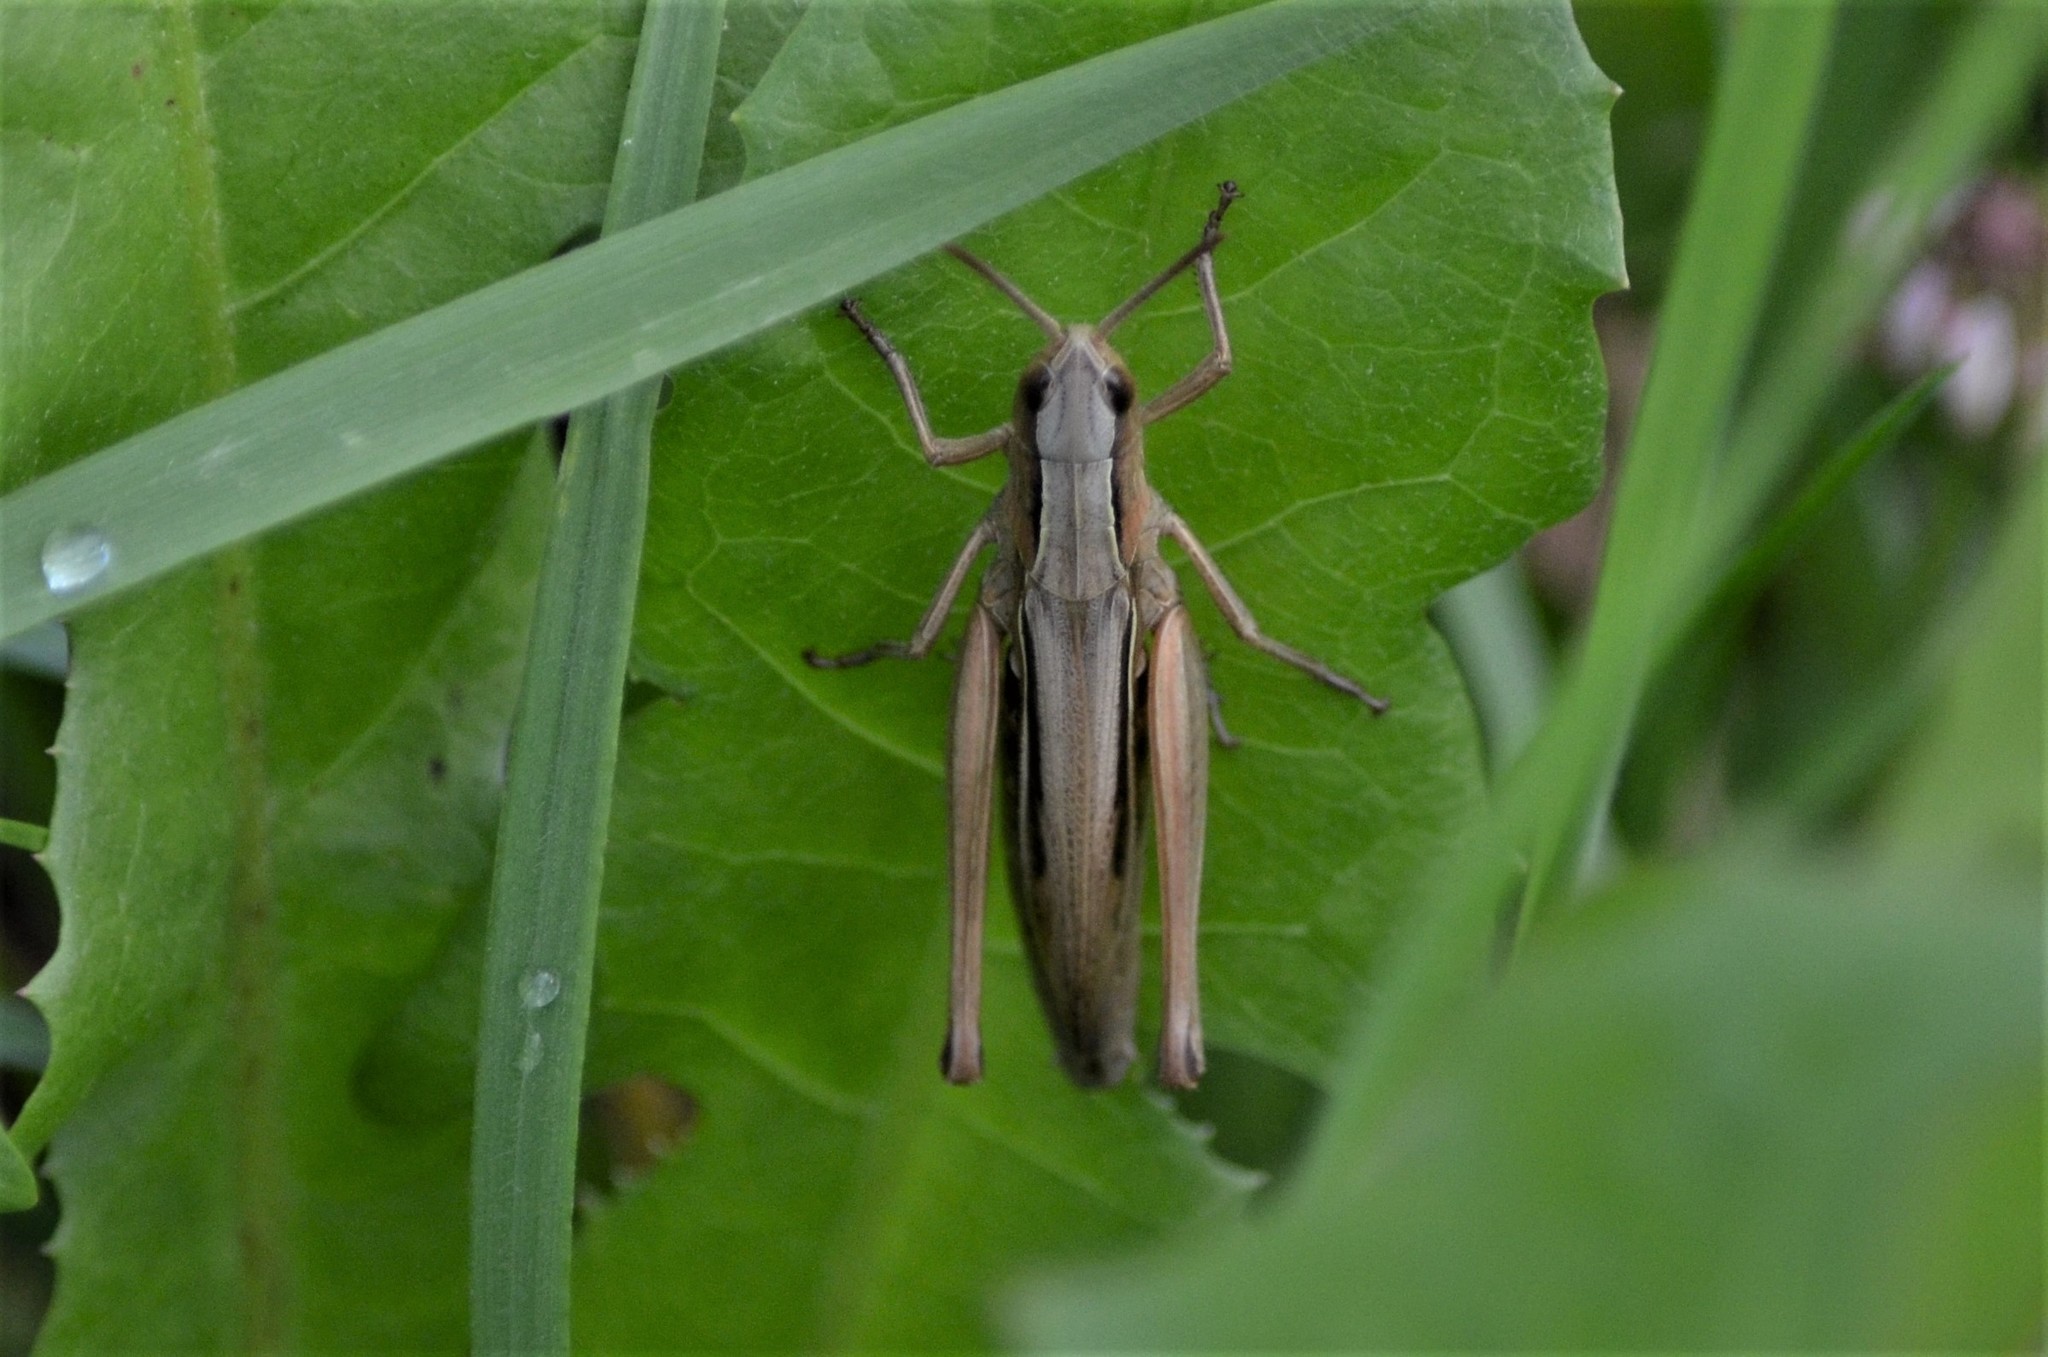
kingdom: Animalia
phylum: Arthropoda
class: Insecta
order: Orthoptera
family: Acrididae
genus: Chorthippus
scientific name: Chorthippus albomarginatus
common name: Lesser marsh grasshopper
